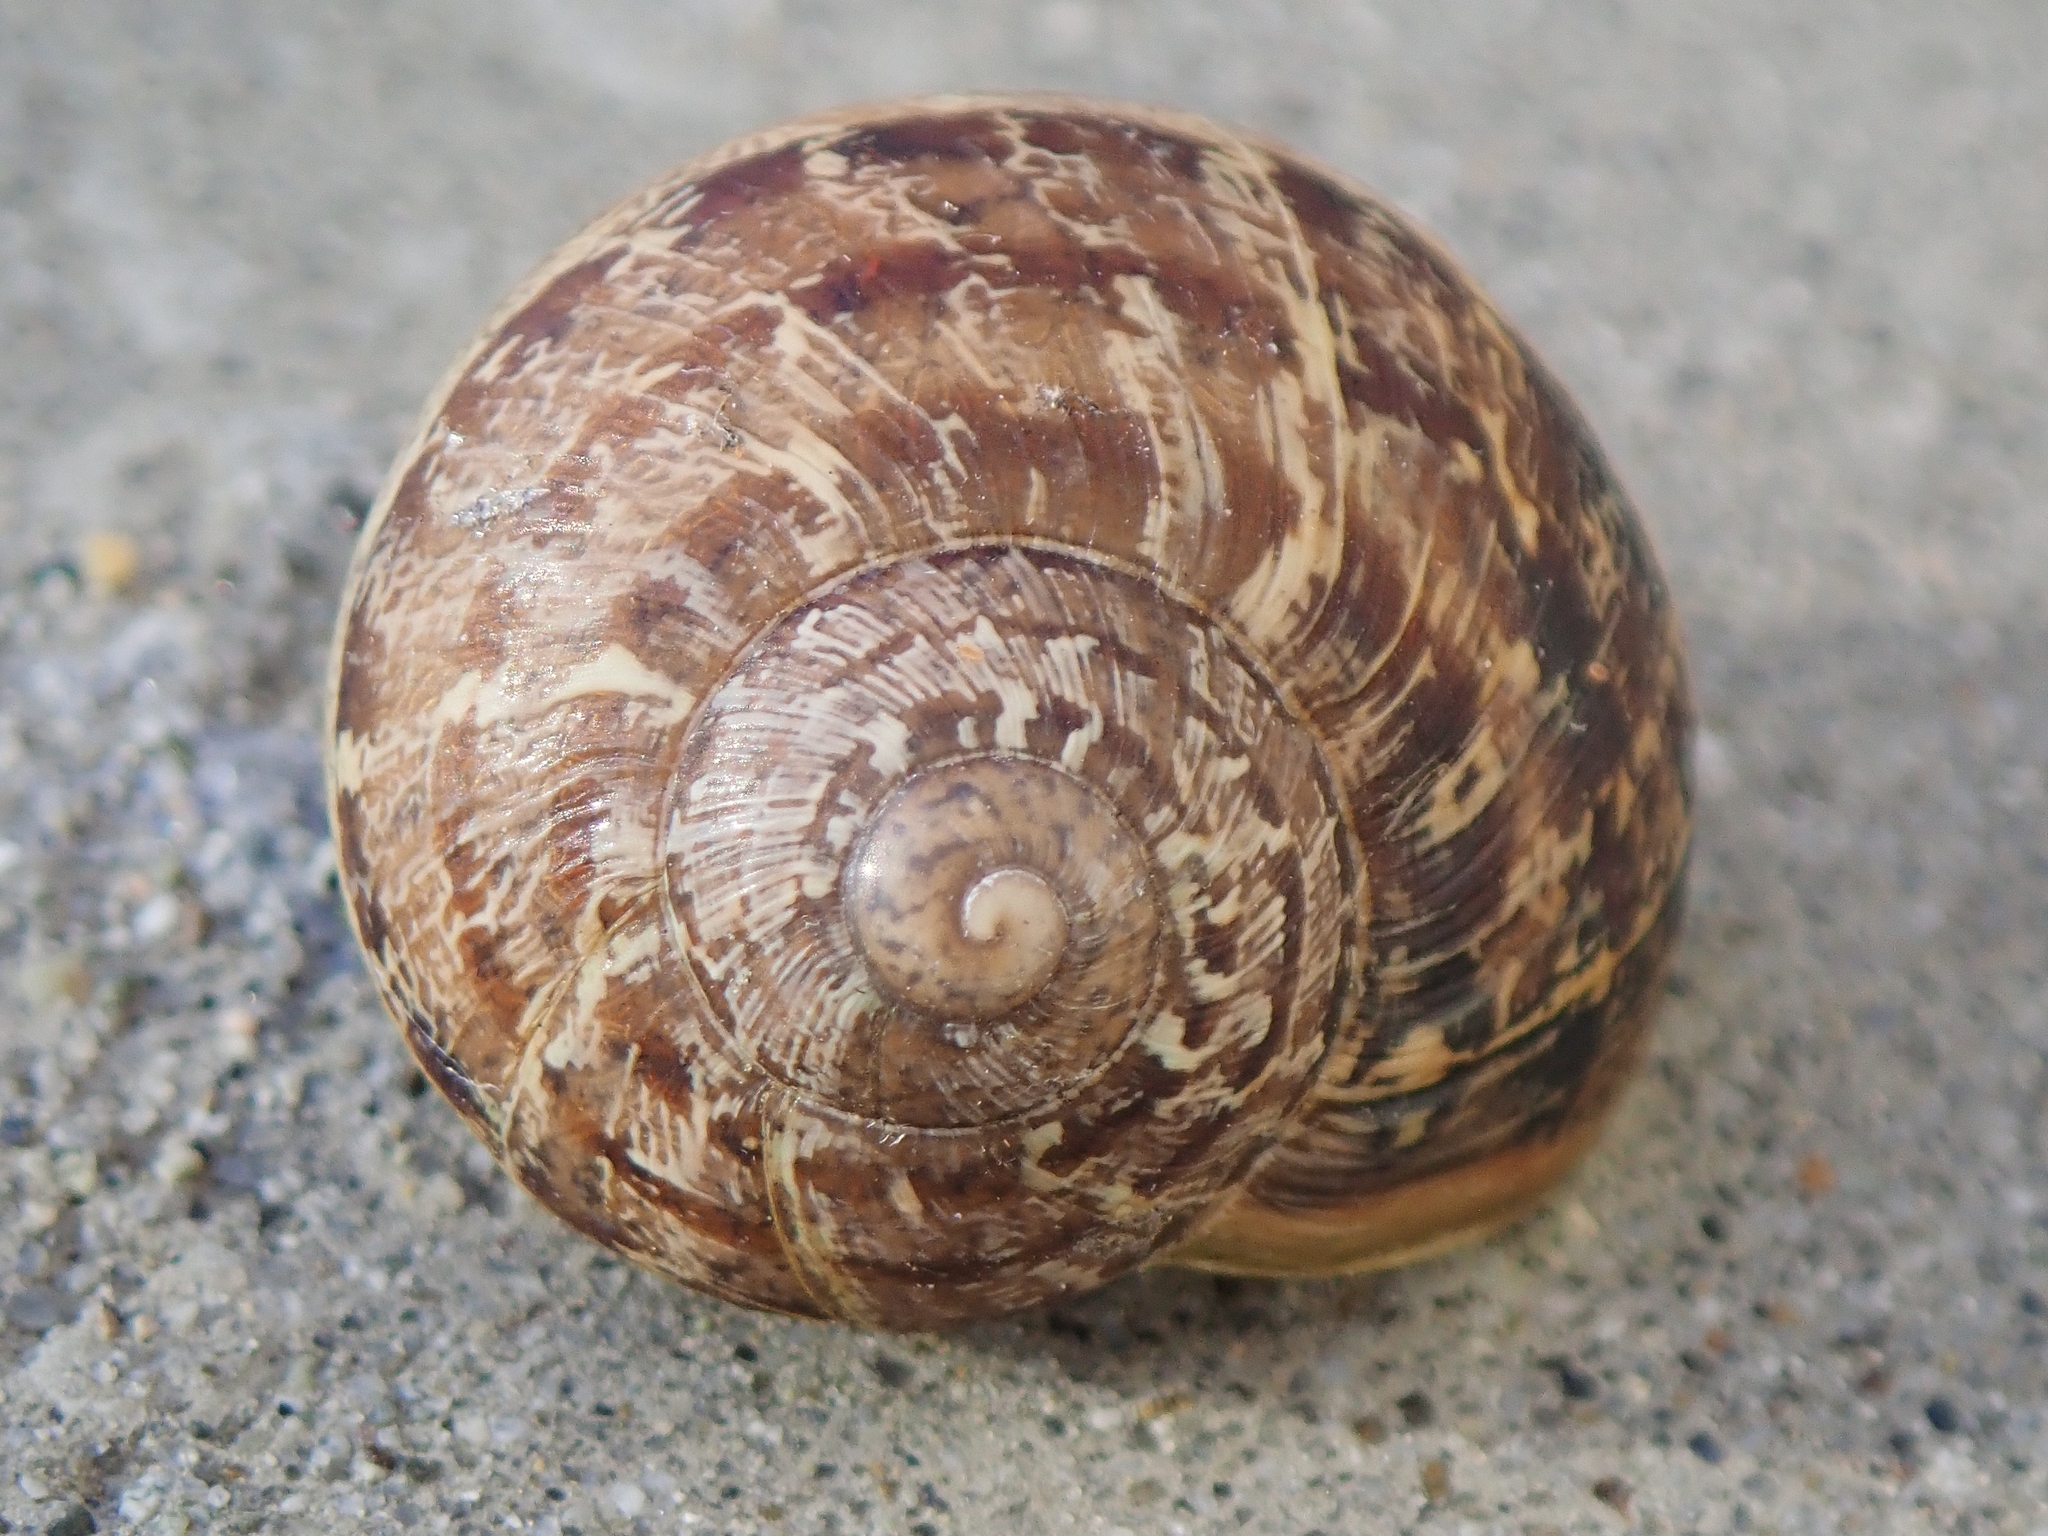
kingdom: Animalia
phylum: Mollusca
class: Gastropoda
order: Stylommatophora
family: Helicidae
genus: Cornu
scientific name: Cornu aspersum
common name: Brown garden snail
